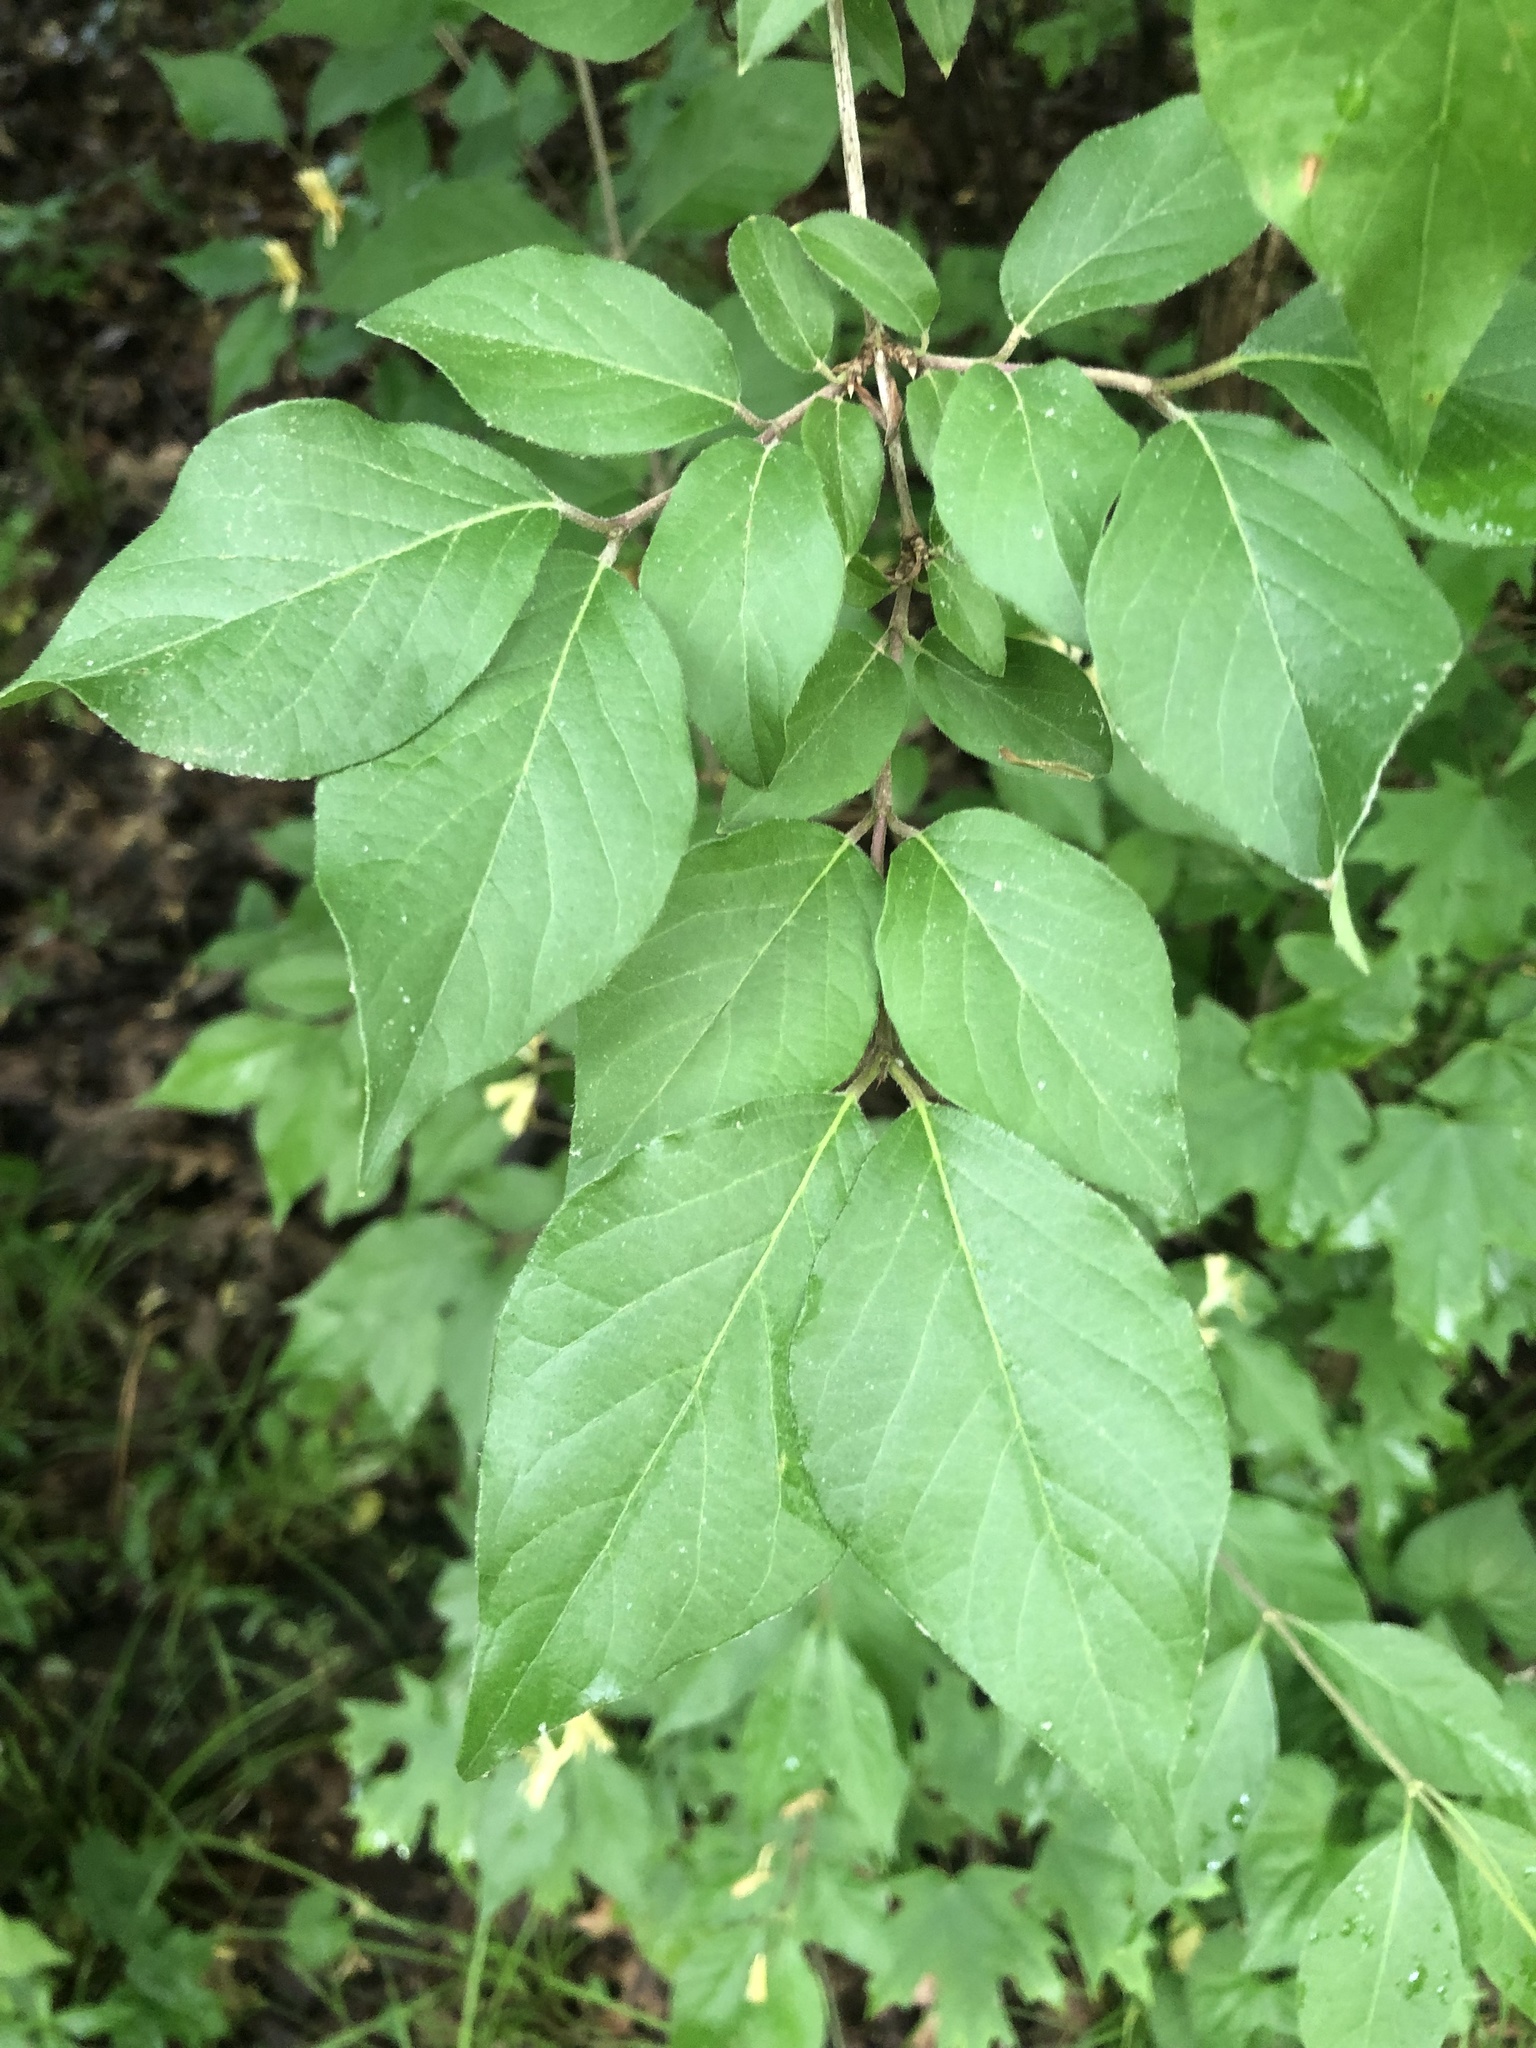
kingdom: Plantae
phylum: Tracheophyta
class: Magnoliopsida
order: Dipsacales
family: Caprifoliaceae
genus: Lonicera
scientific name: Lonicera maackii
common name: Amur honeysuckle
